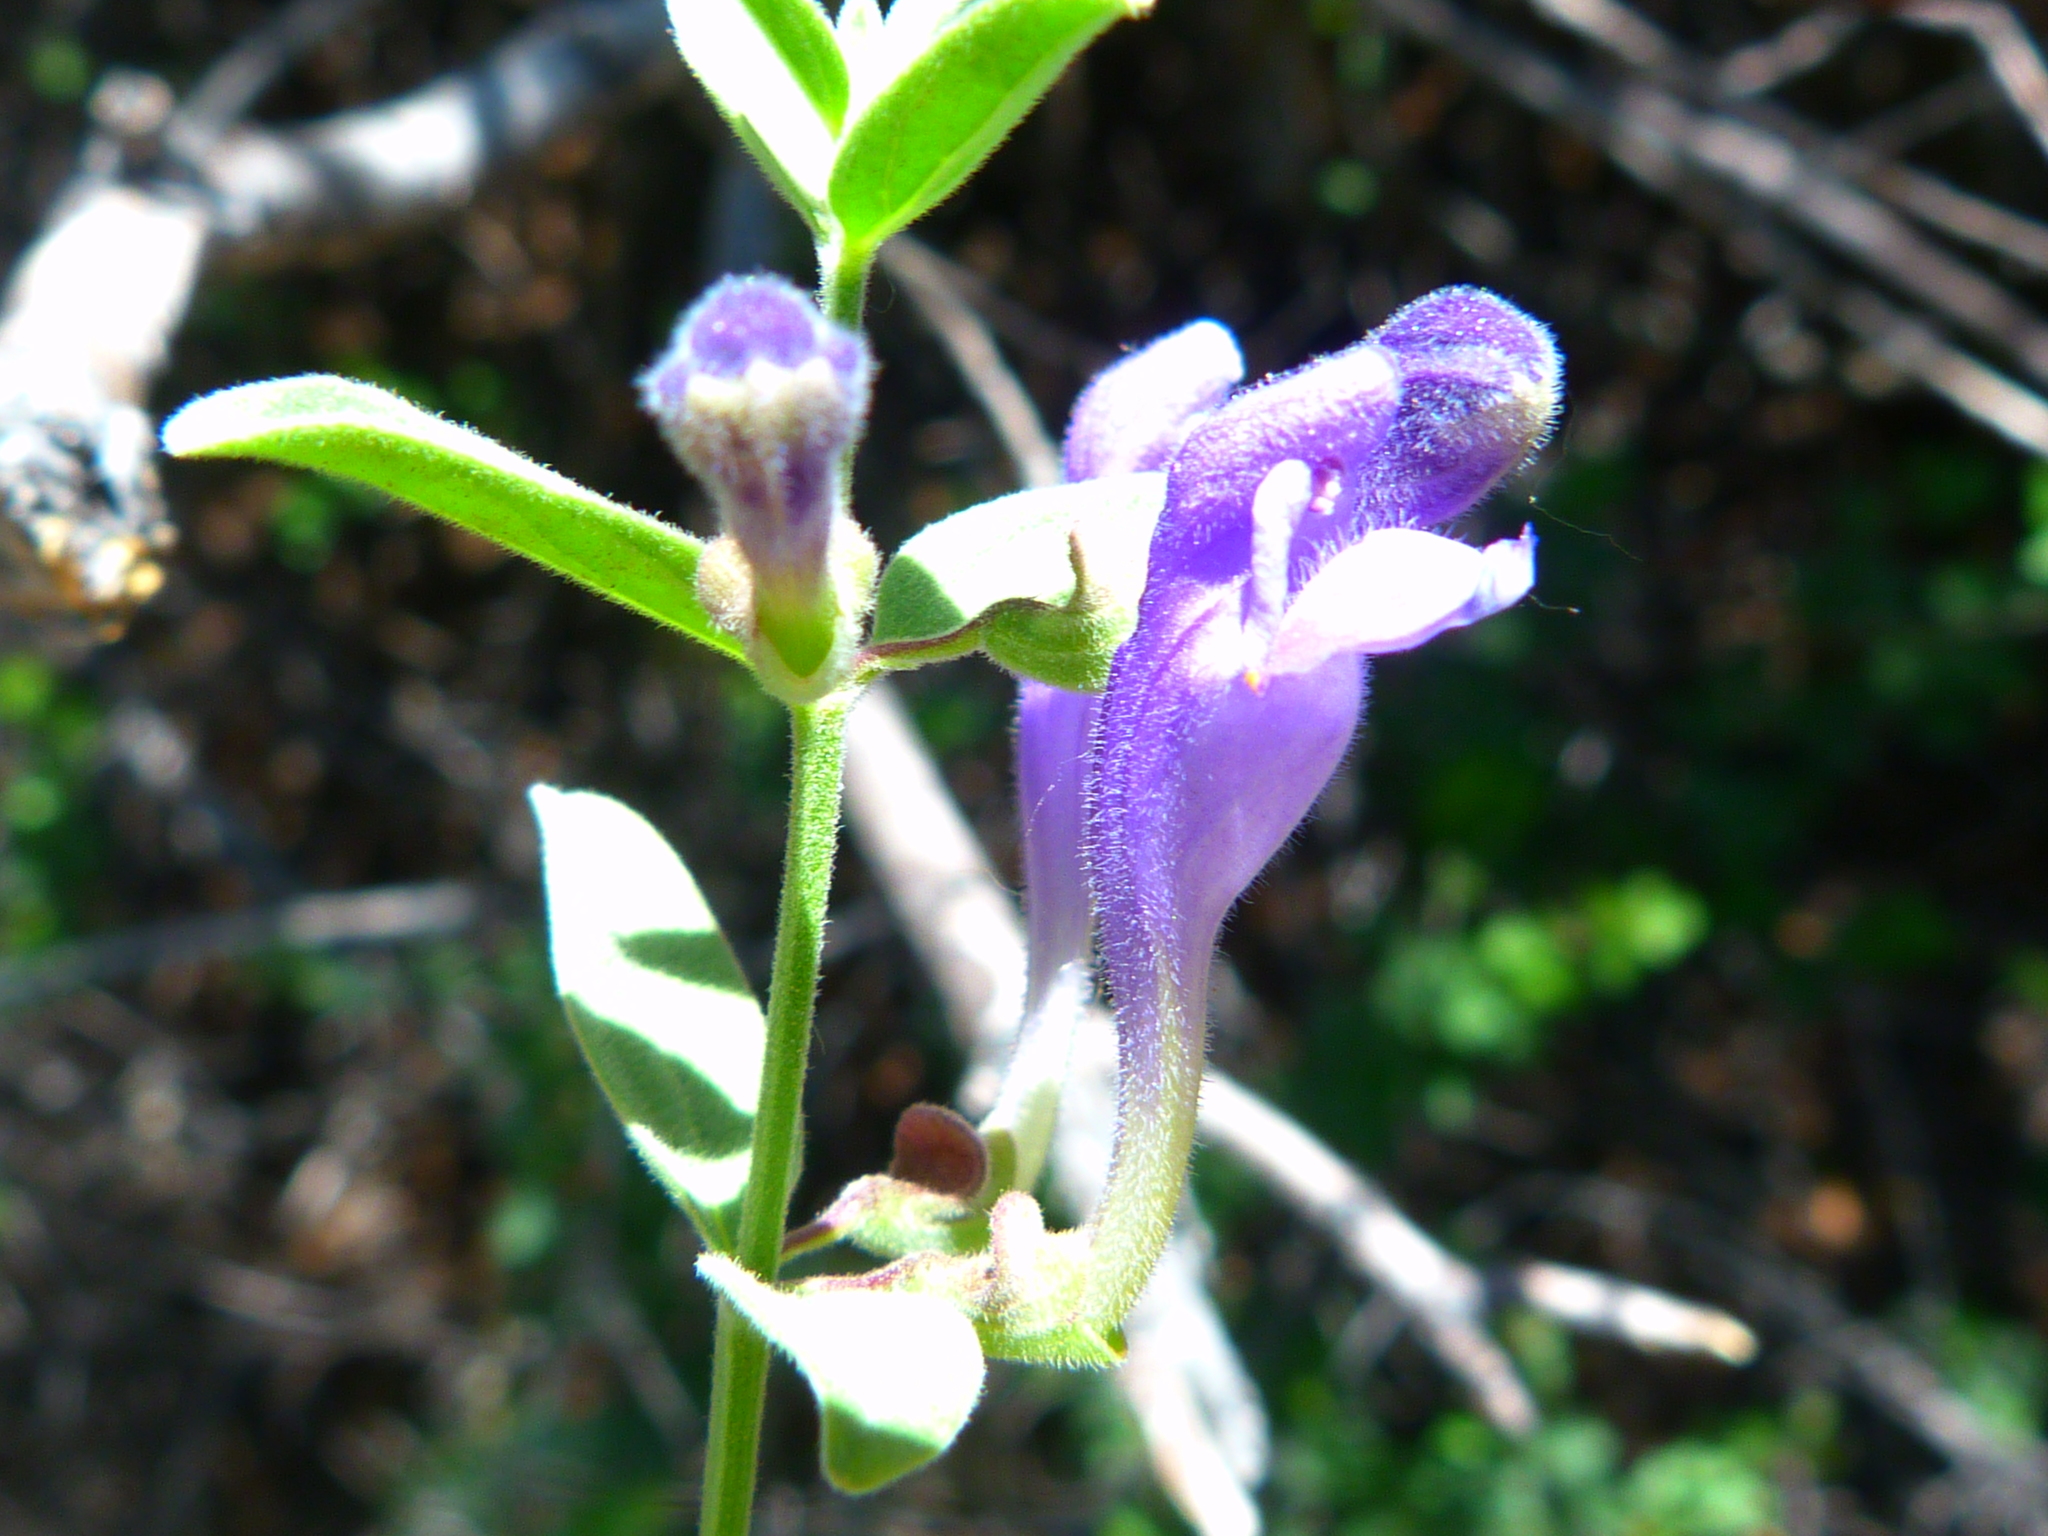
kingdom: Plantae
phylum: Tracheophyta
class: Magnoliopsida
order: Lamiales
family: Lamiaceae
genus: Scutellaria
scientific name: Scutellaria tuberosa
